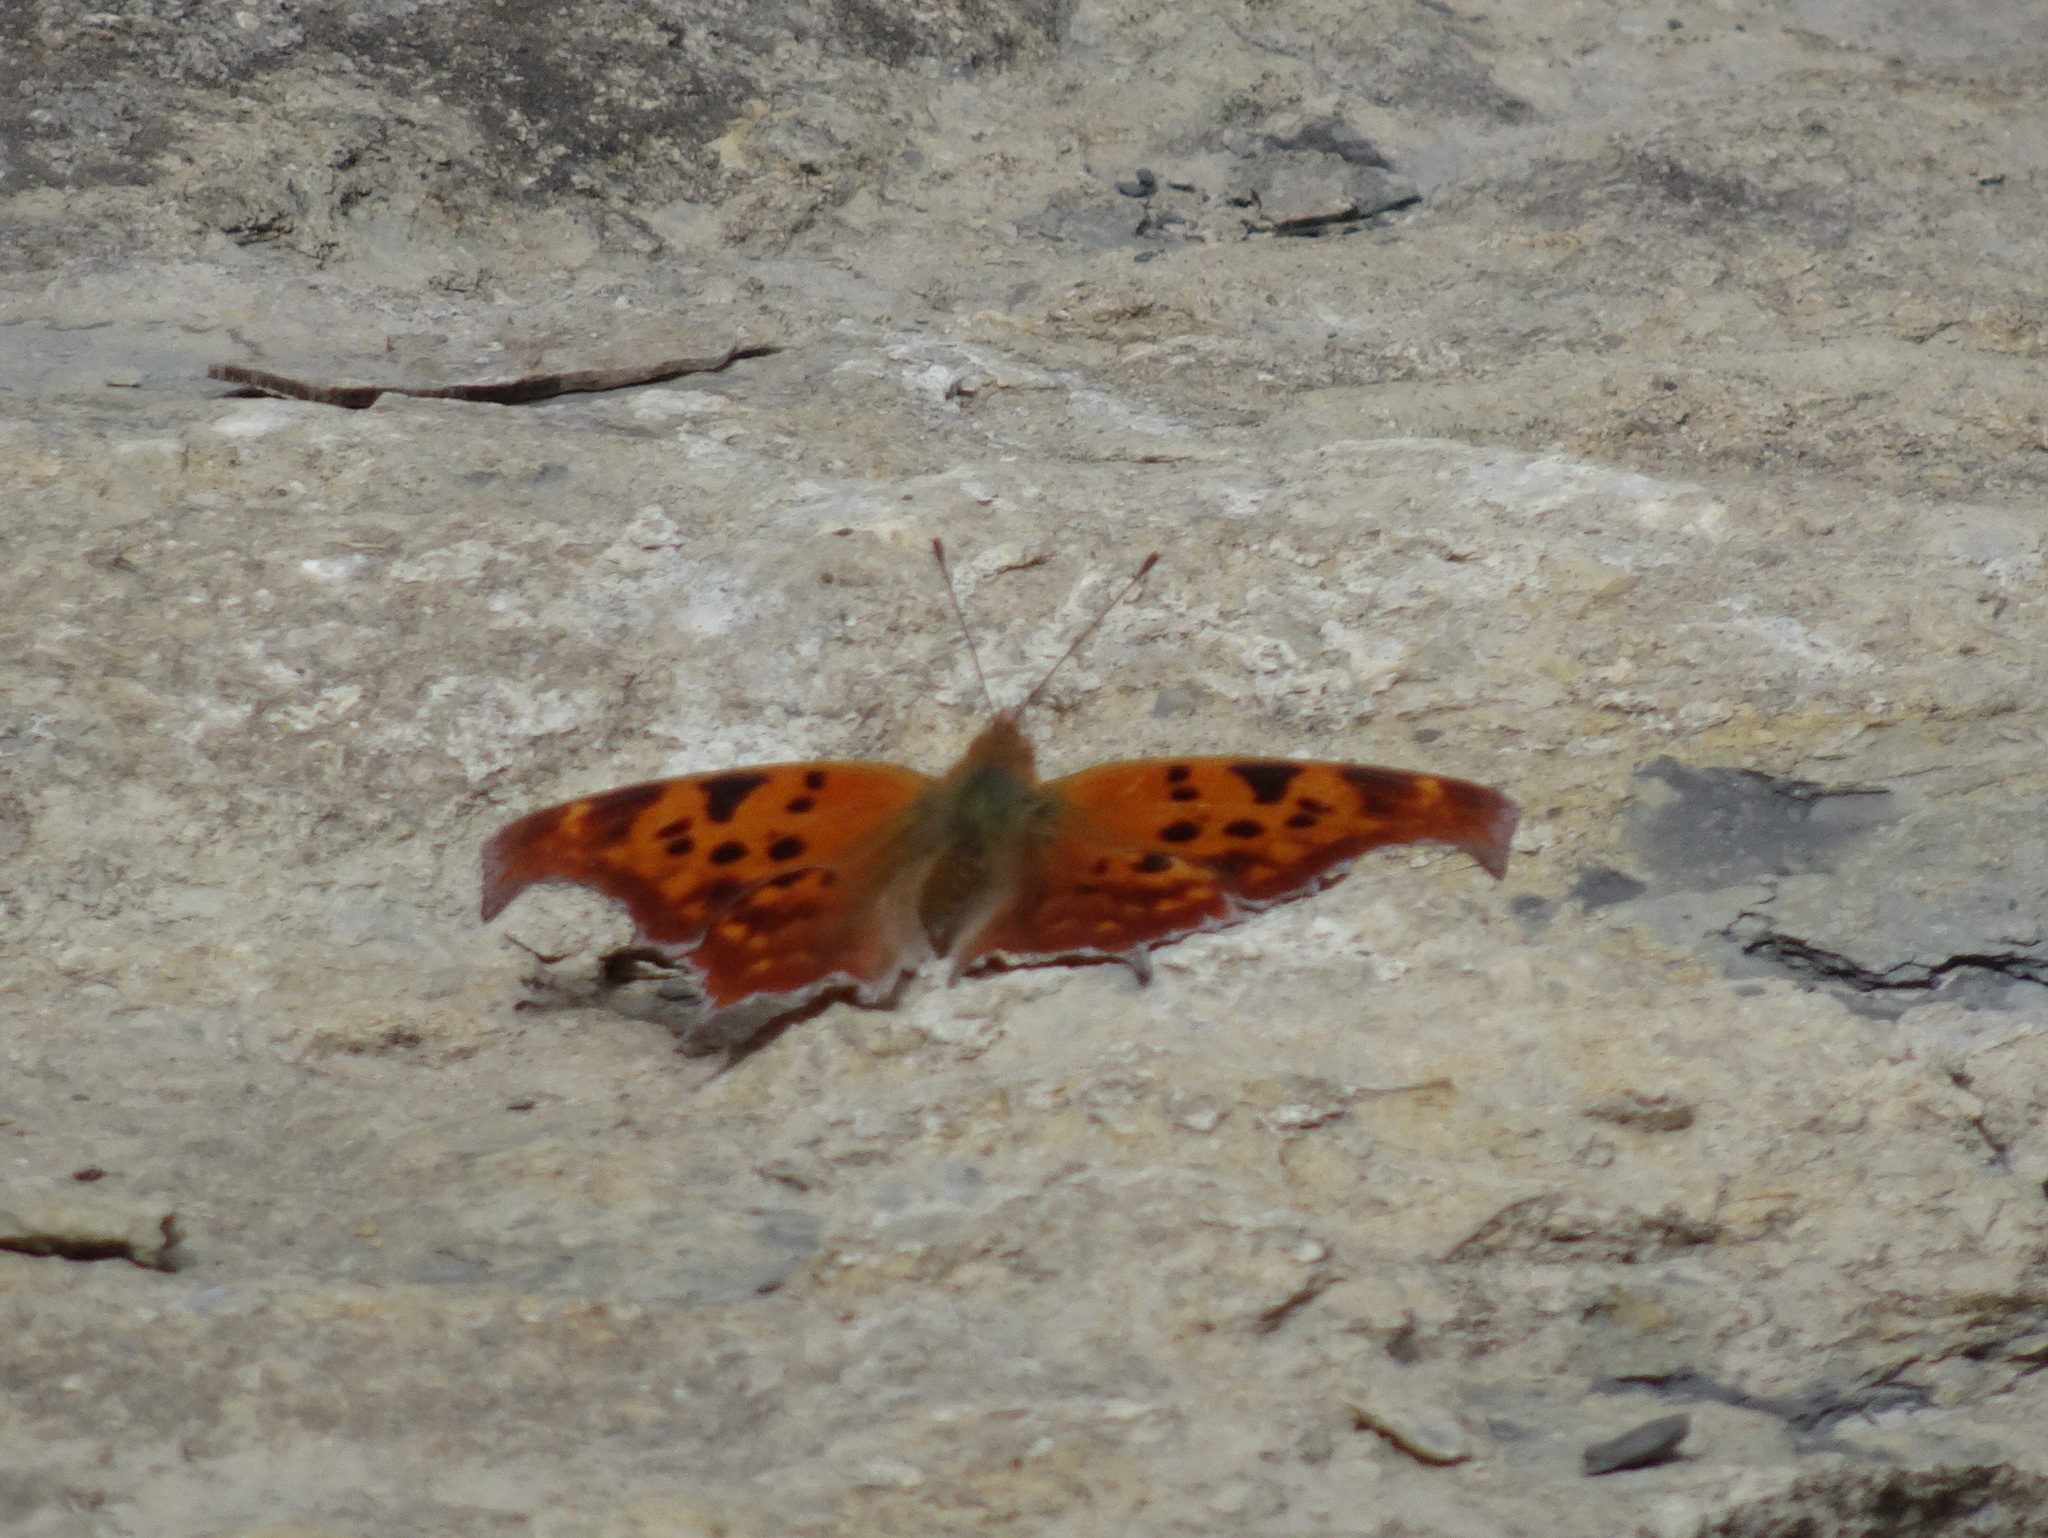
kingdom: Animalia
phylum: Arthropoda
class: Insecta
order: Lepidoptera
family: Nymphalidae
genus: Polygonia
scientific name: Polygonia interrogationis
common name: Question mark
